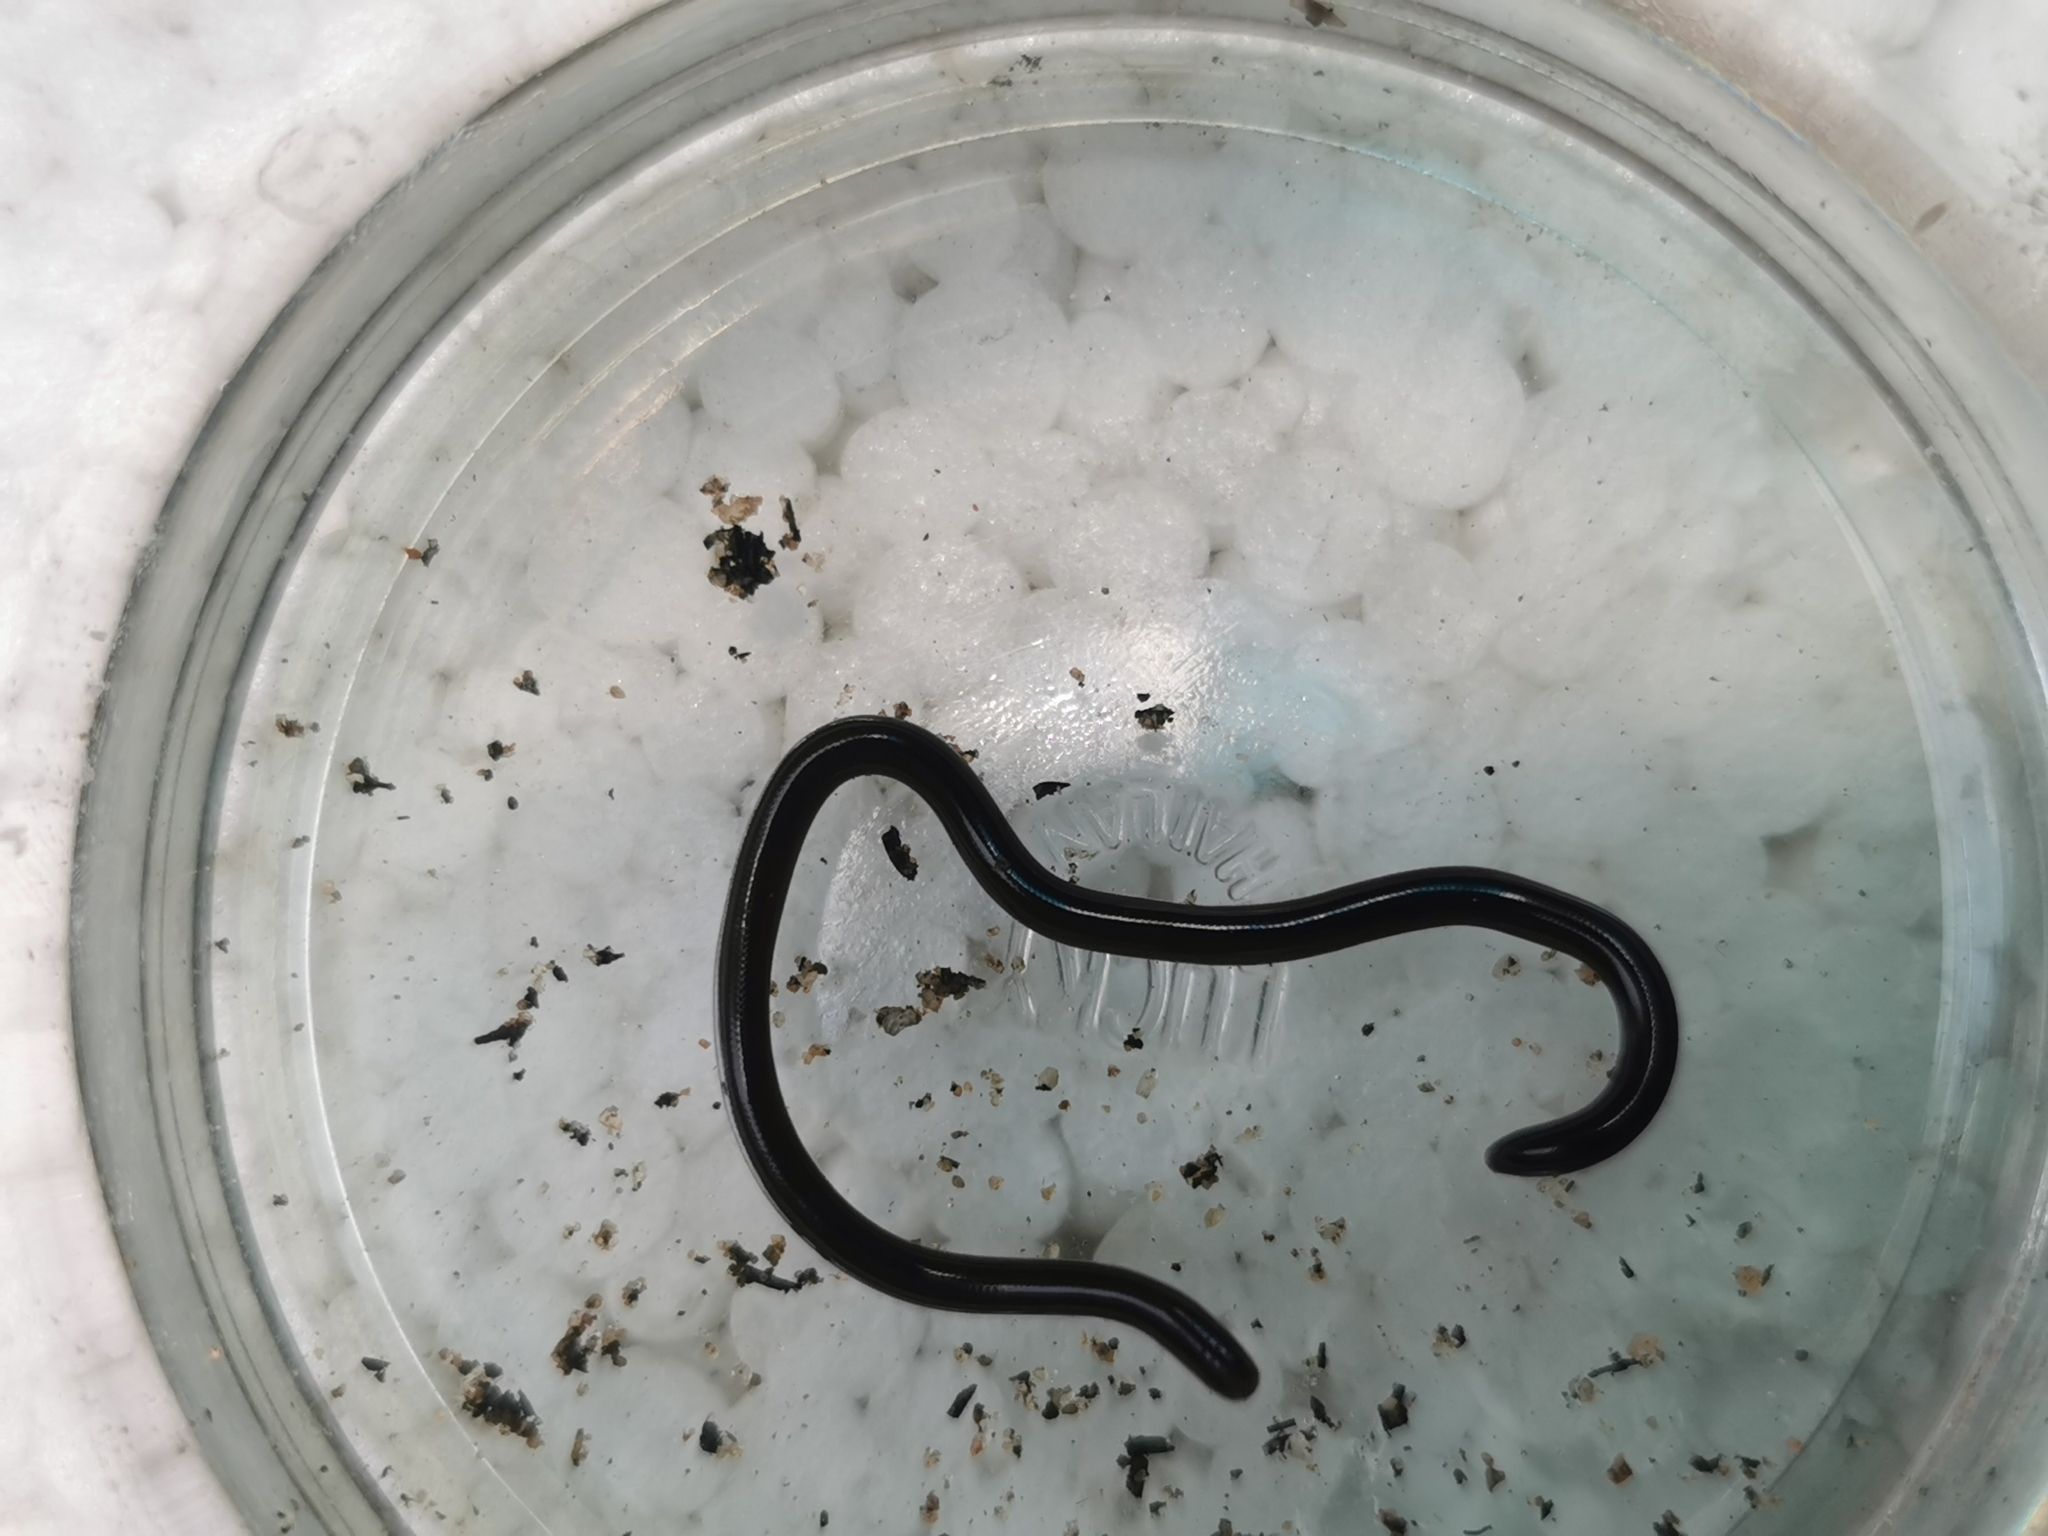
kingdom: Animalia
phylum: Chordata
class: Squamata
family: Typhlopidae
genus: Indotyphlops
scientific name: Indotyphlops braminus
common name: Brahminy blindsnake
